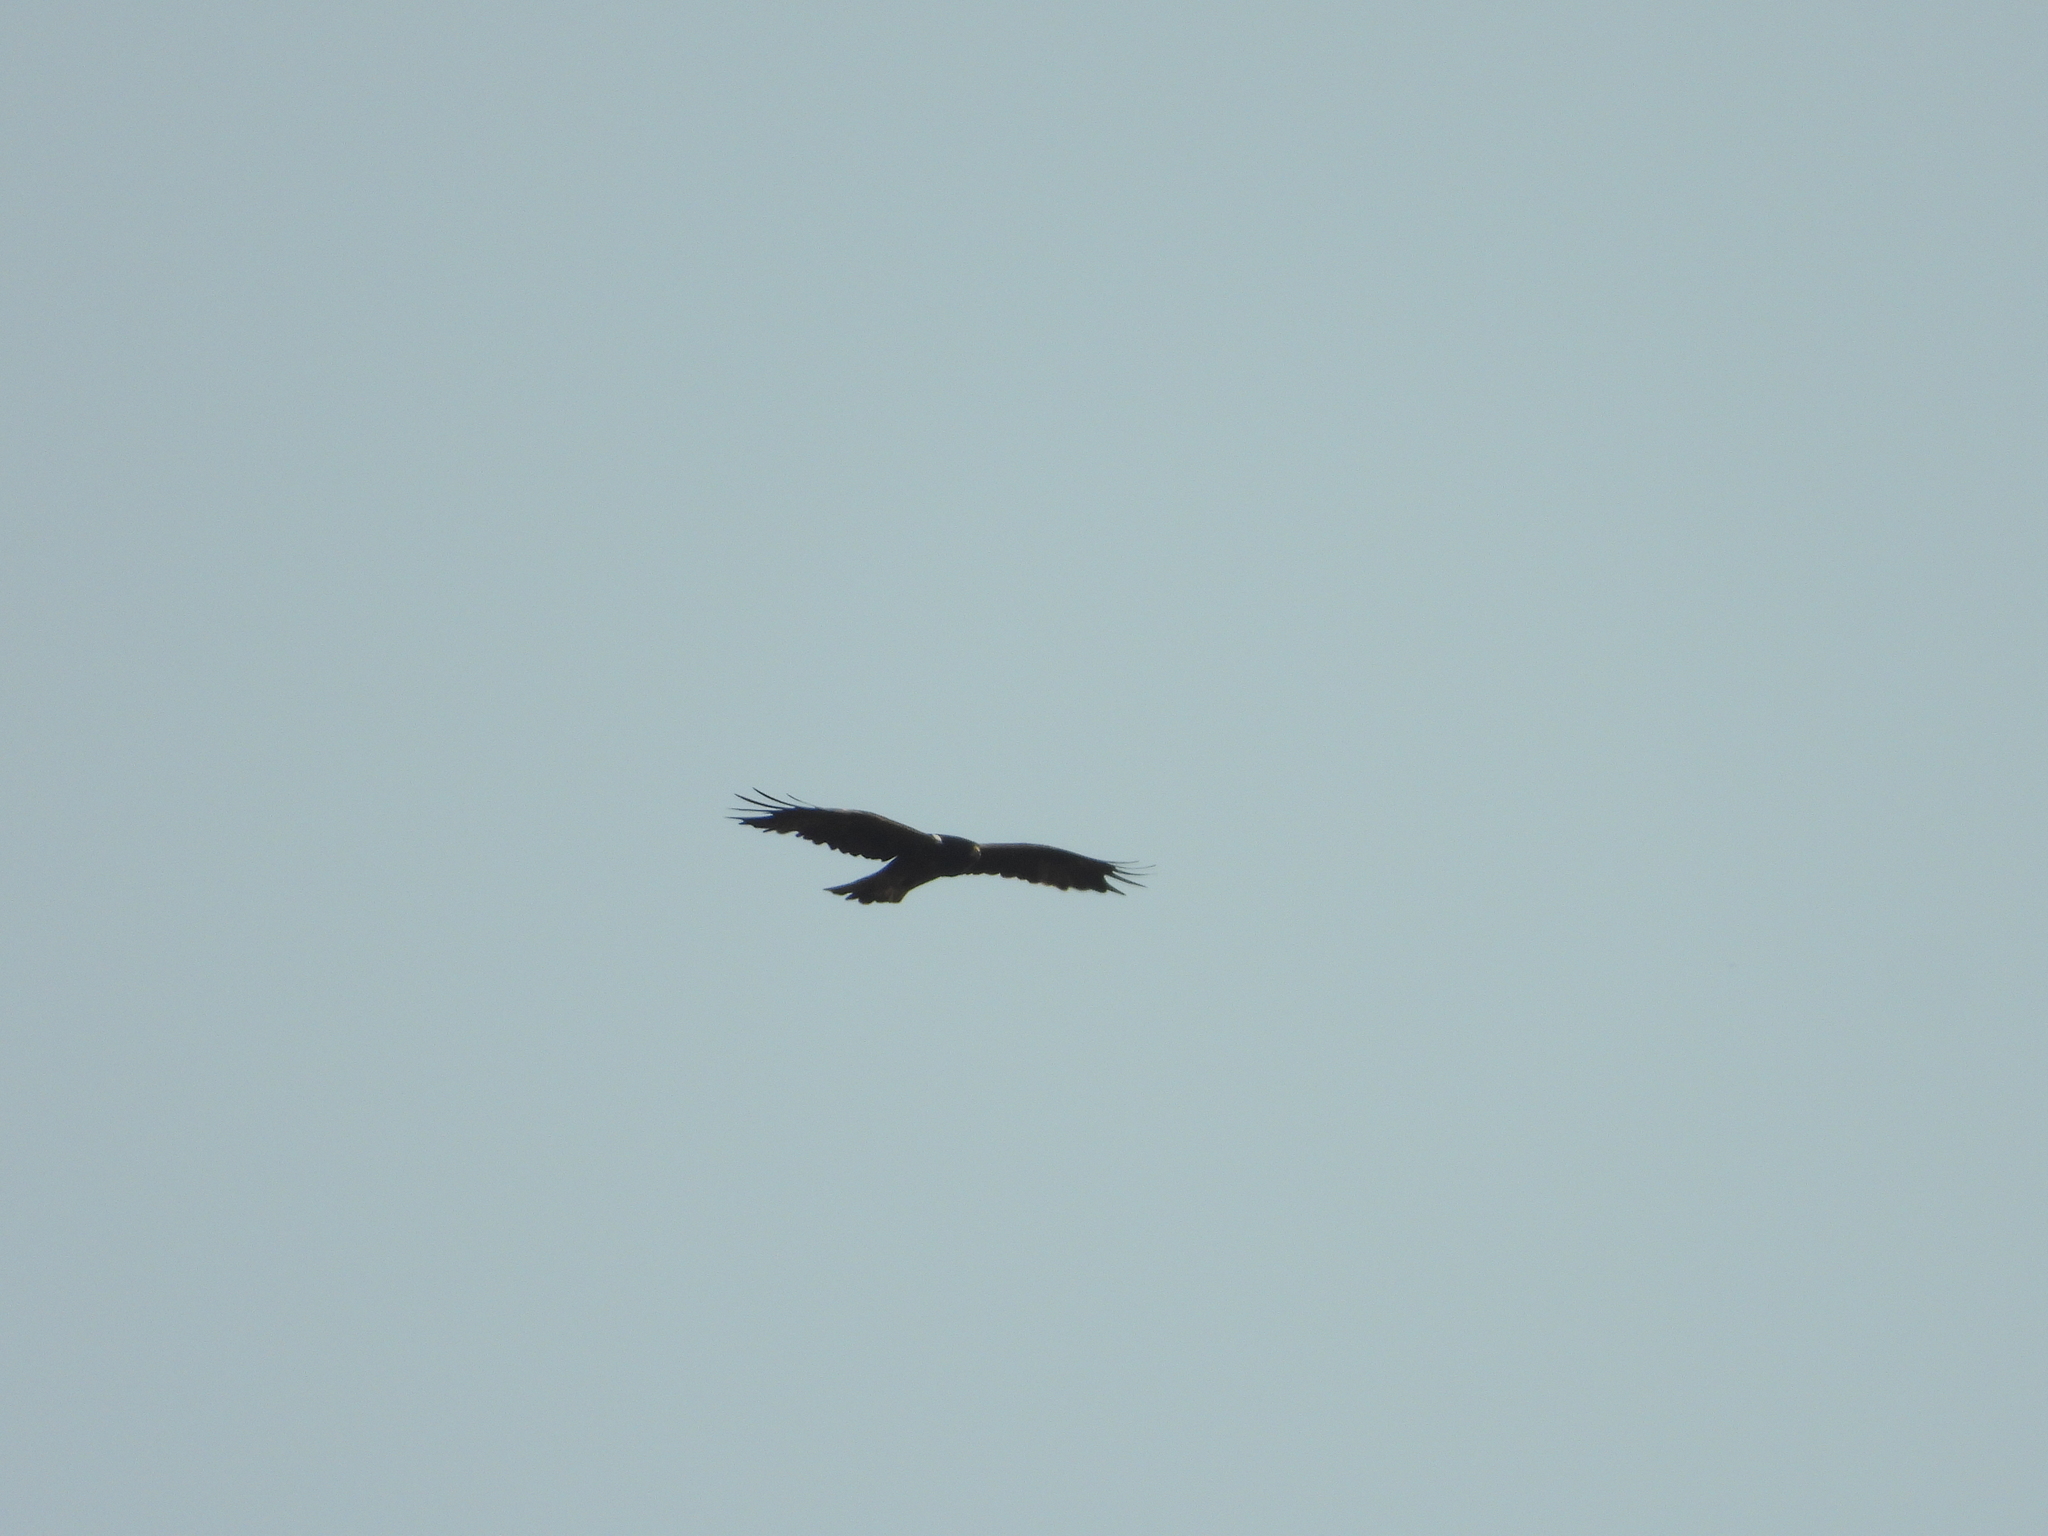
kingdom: Animalia
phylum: Chordata
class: Aves
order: Accipitriformes
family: Accipitridae
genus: Hieraaetus
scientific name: Hieraaetus pennatus
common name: Booted eagle
